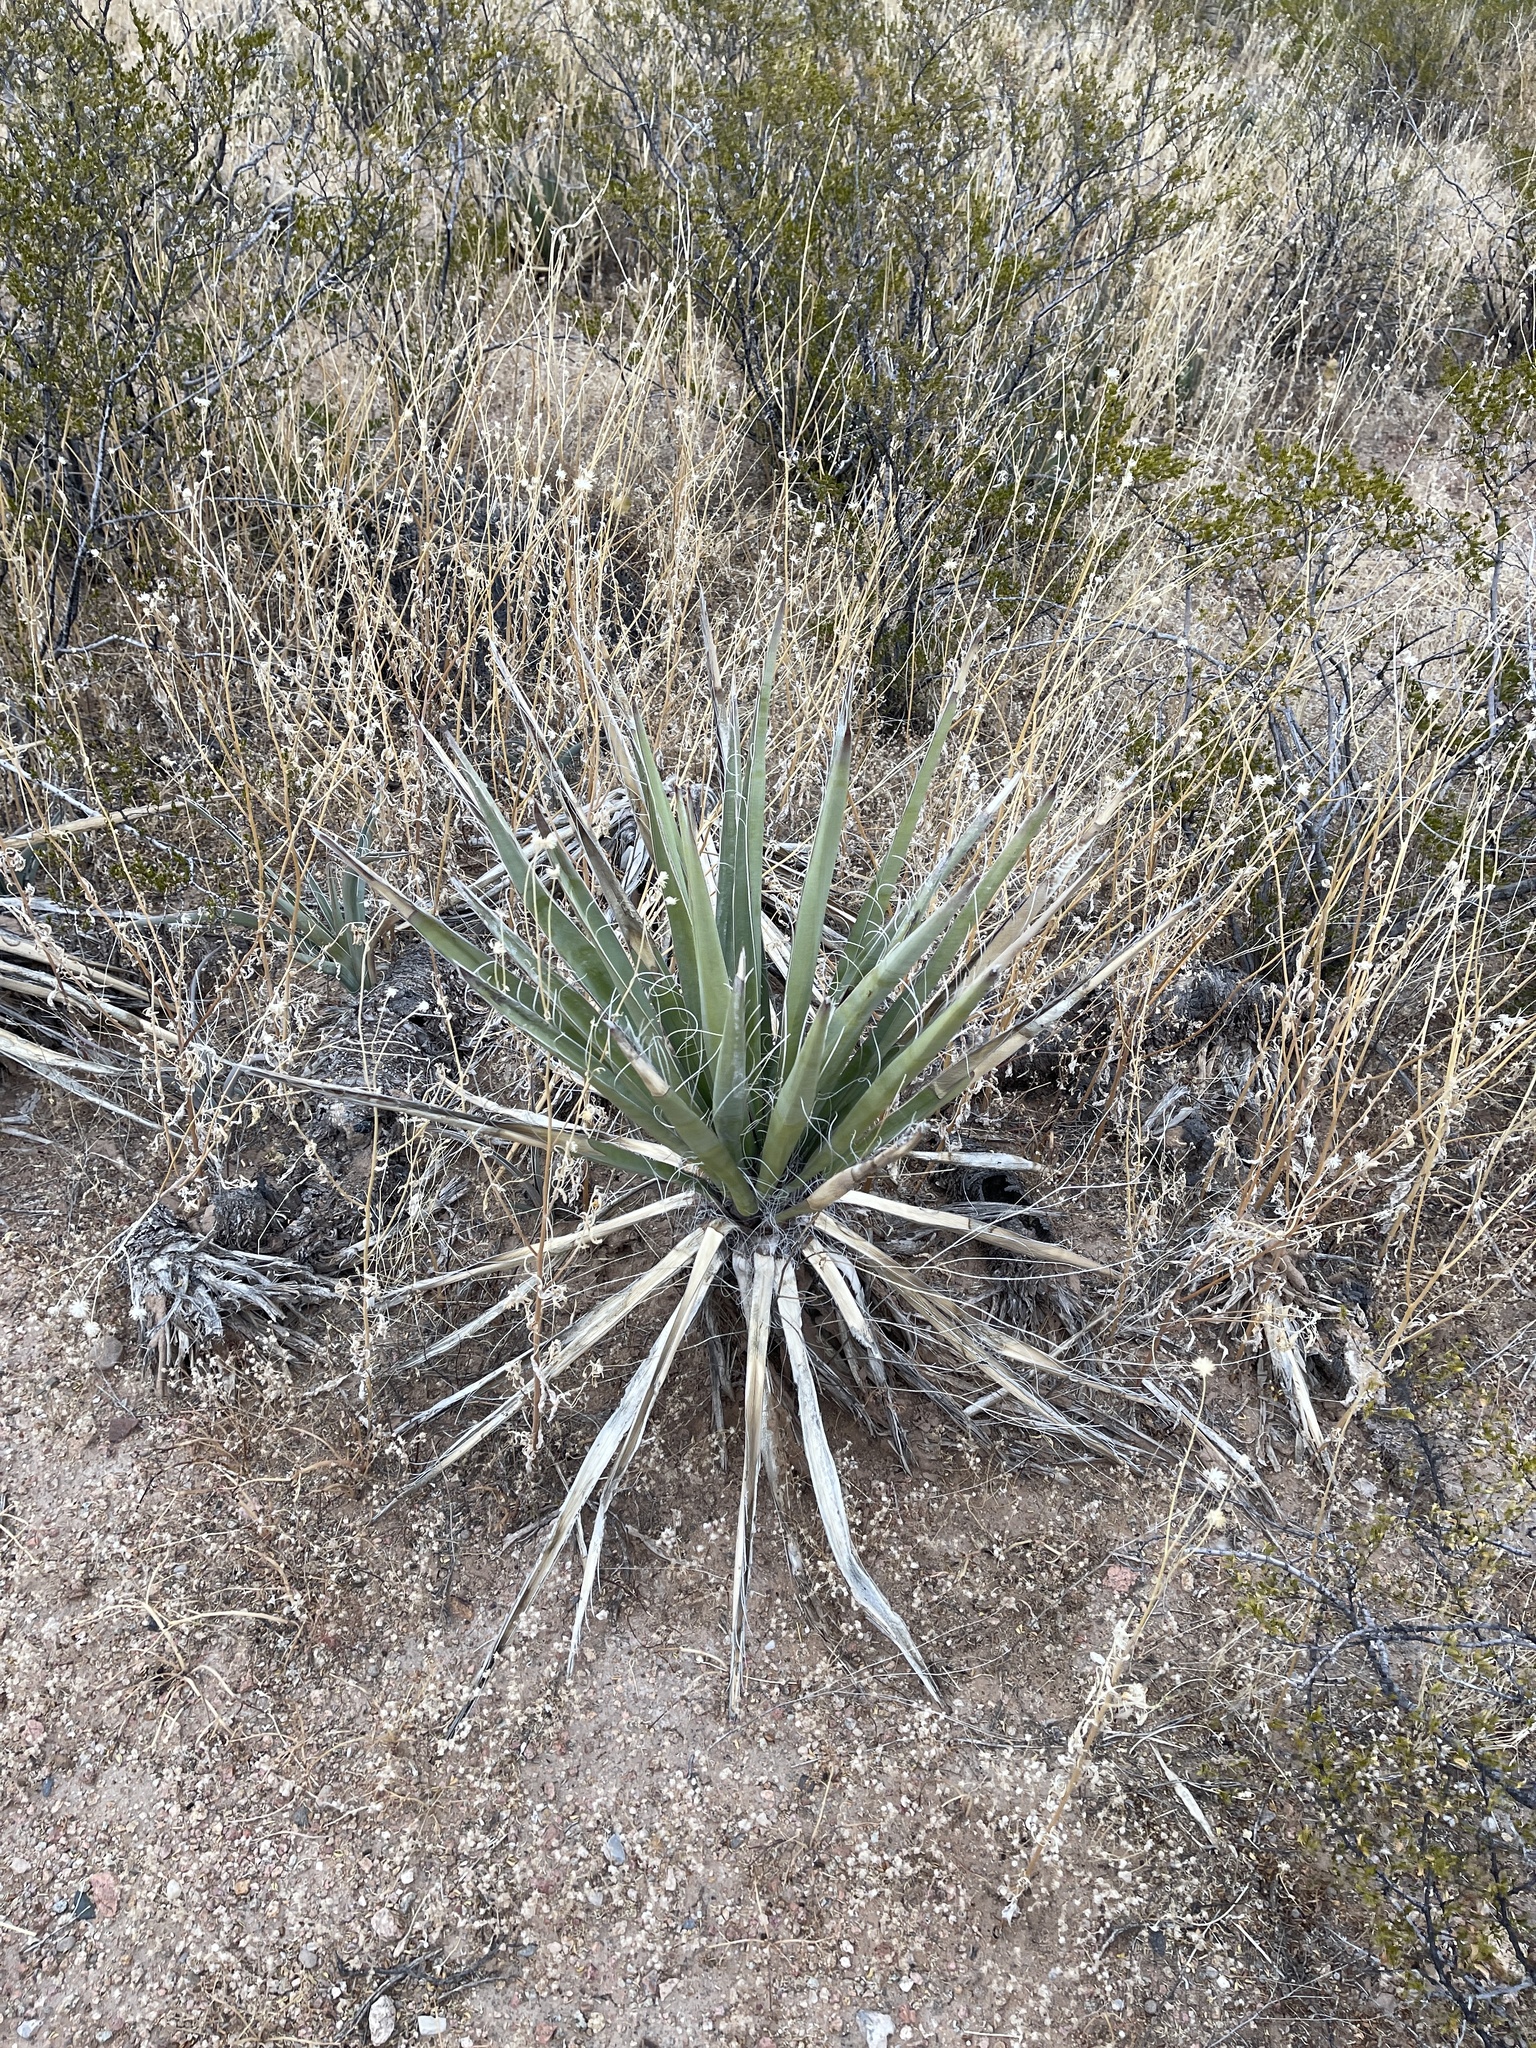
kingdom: Plantae
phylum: Tracheophyta
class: Liliopsida
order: Asparagales
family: Asparagaceae
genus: Yucca
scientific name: Yucca baccata
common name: Banana yucca
